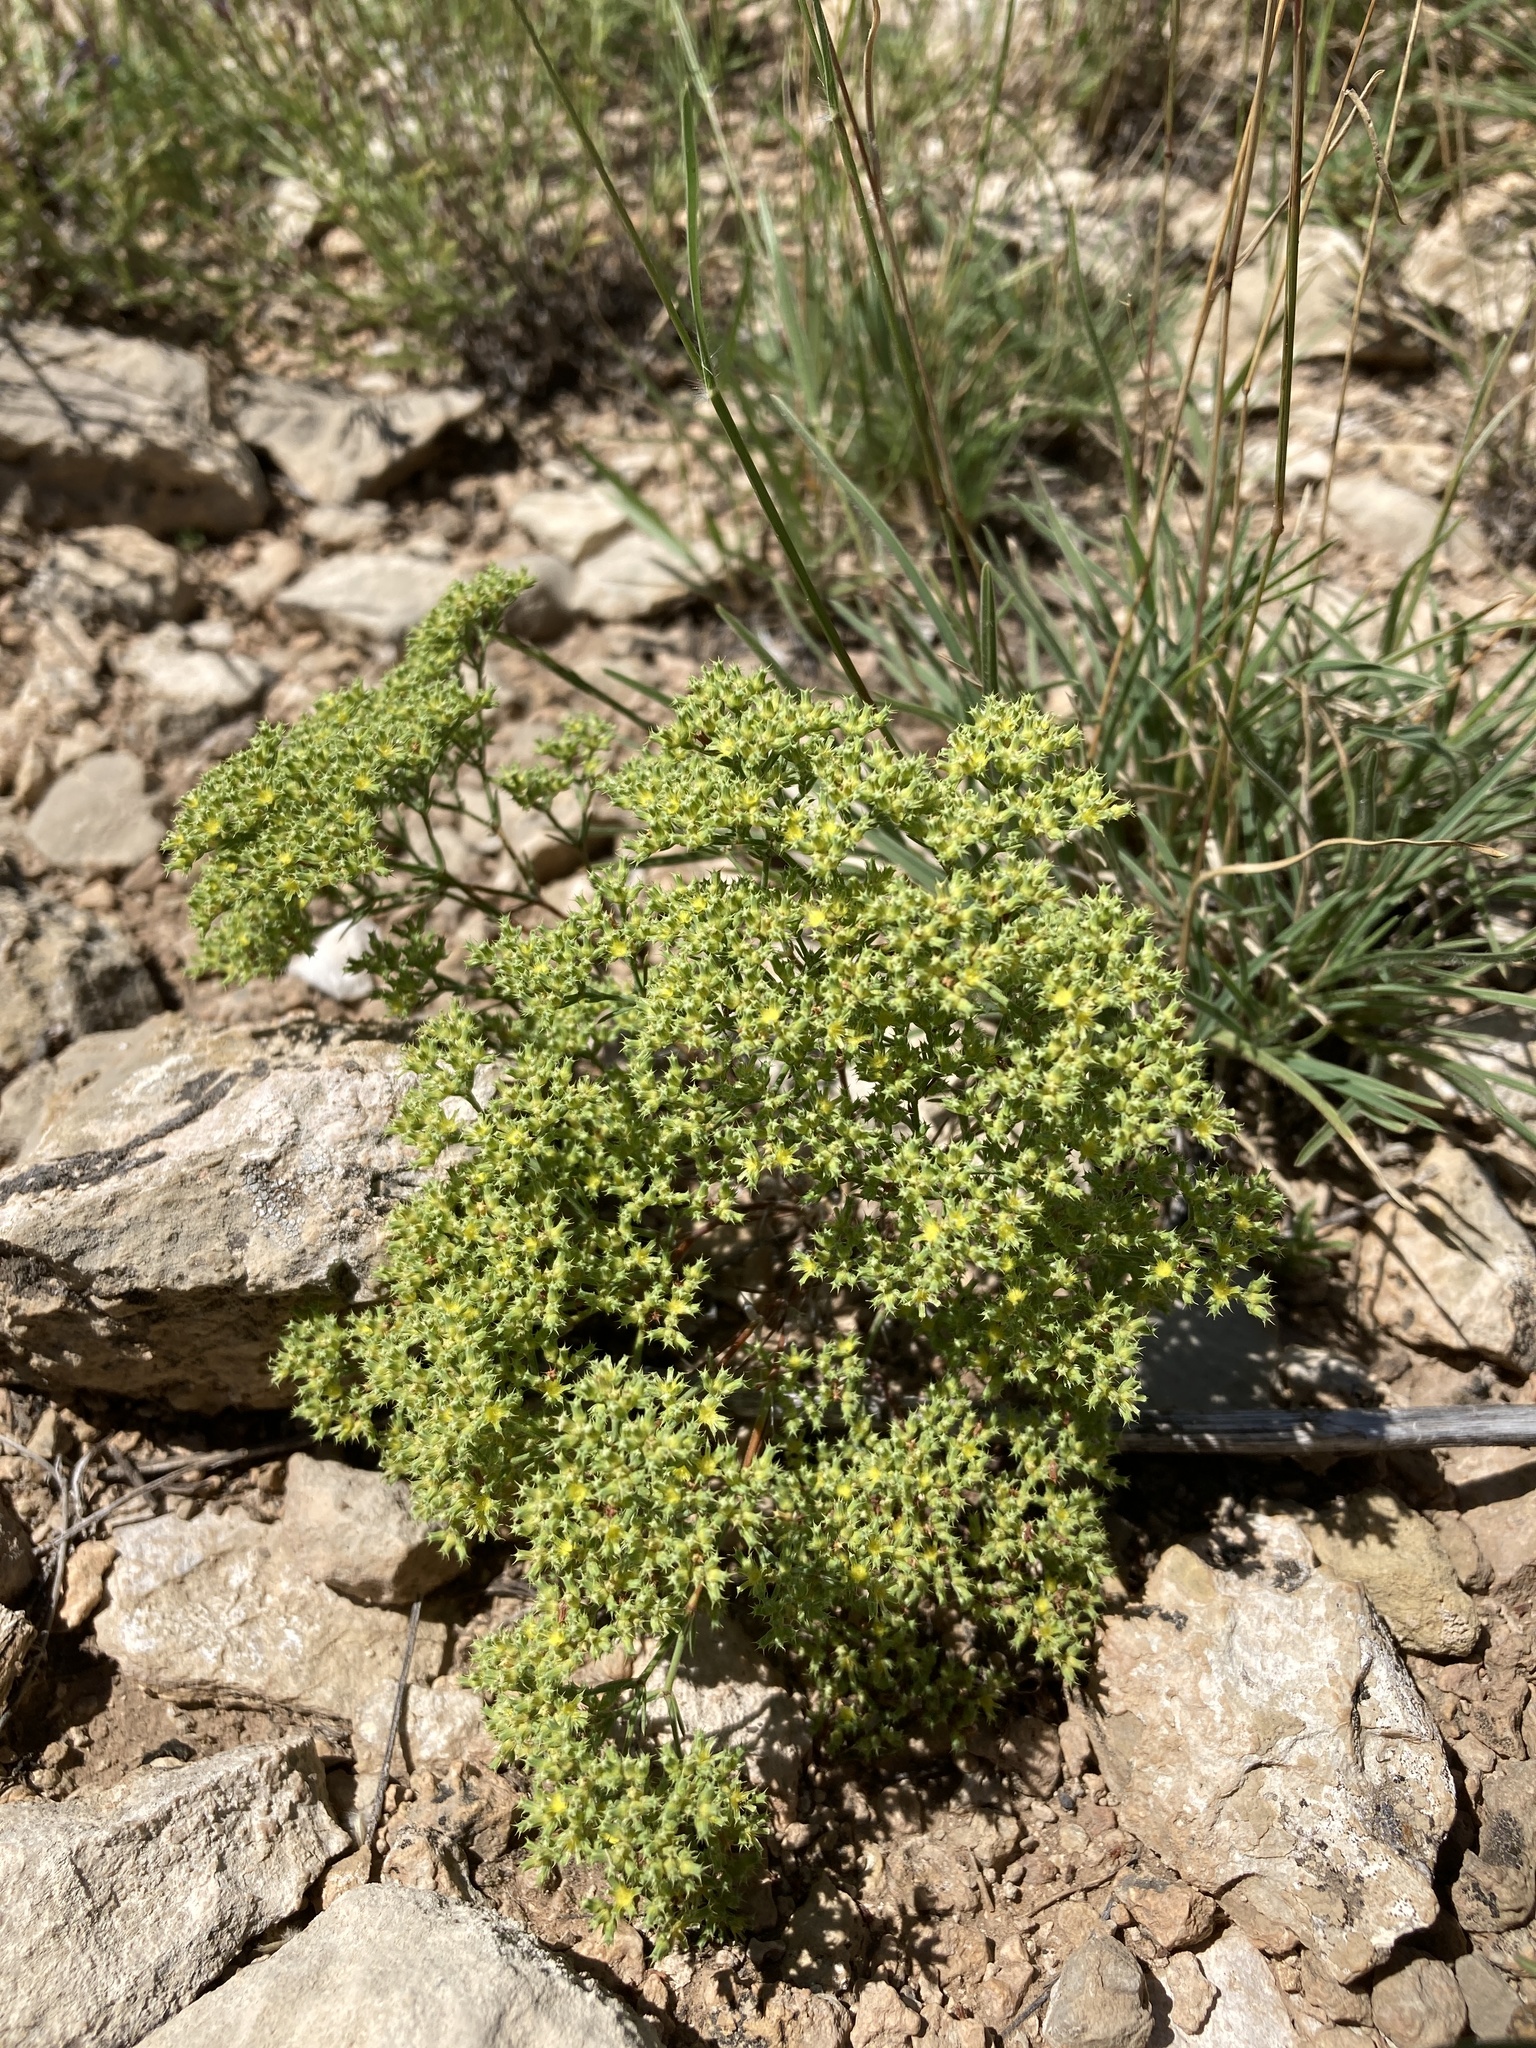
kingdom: Plantae
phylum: Tracheophyta
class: Magnoliopsida
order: Caryophyllales
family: Caryophyllaceae
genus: Paronychia
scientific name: Paronychia jamesii
